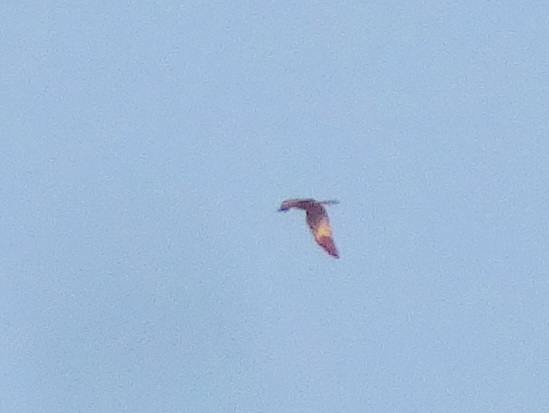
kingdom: Animalia
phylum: Chordata
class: Aves
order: Accipitriformes
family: Accipitridae
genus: Circus
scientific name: Circus pygargus
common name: Montagu's harrier
